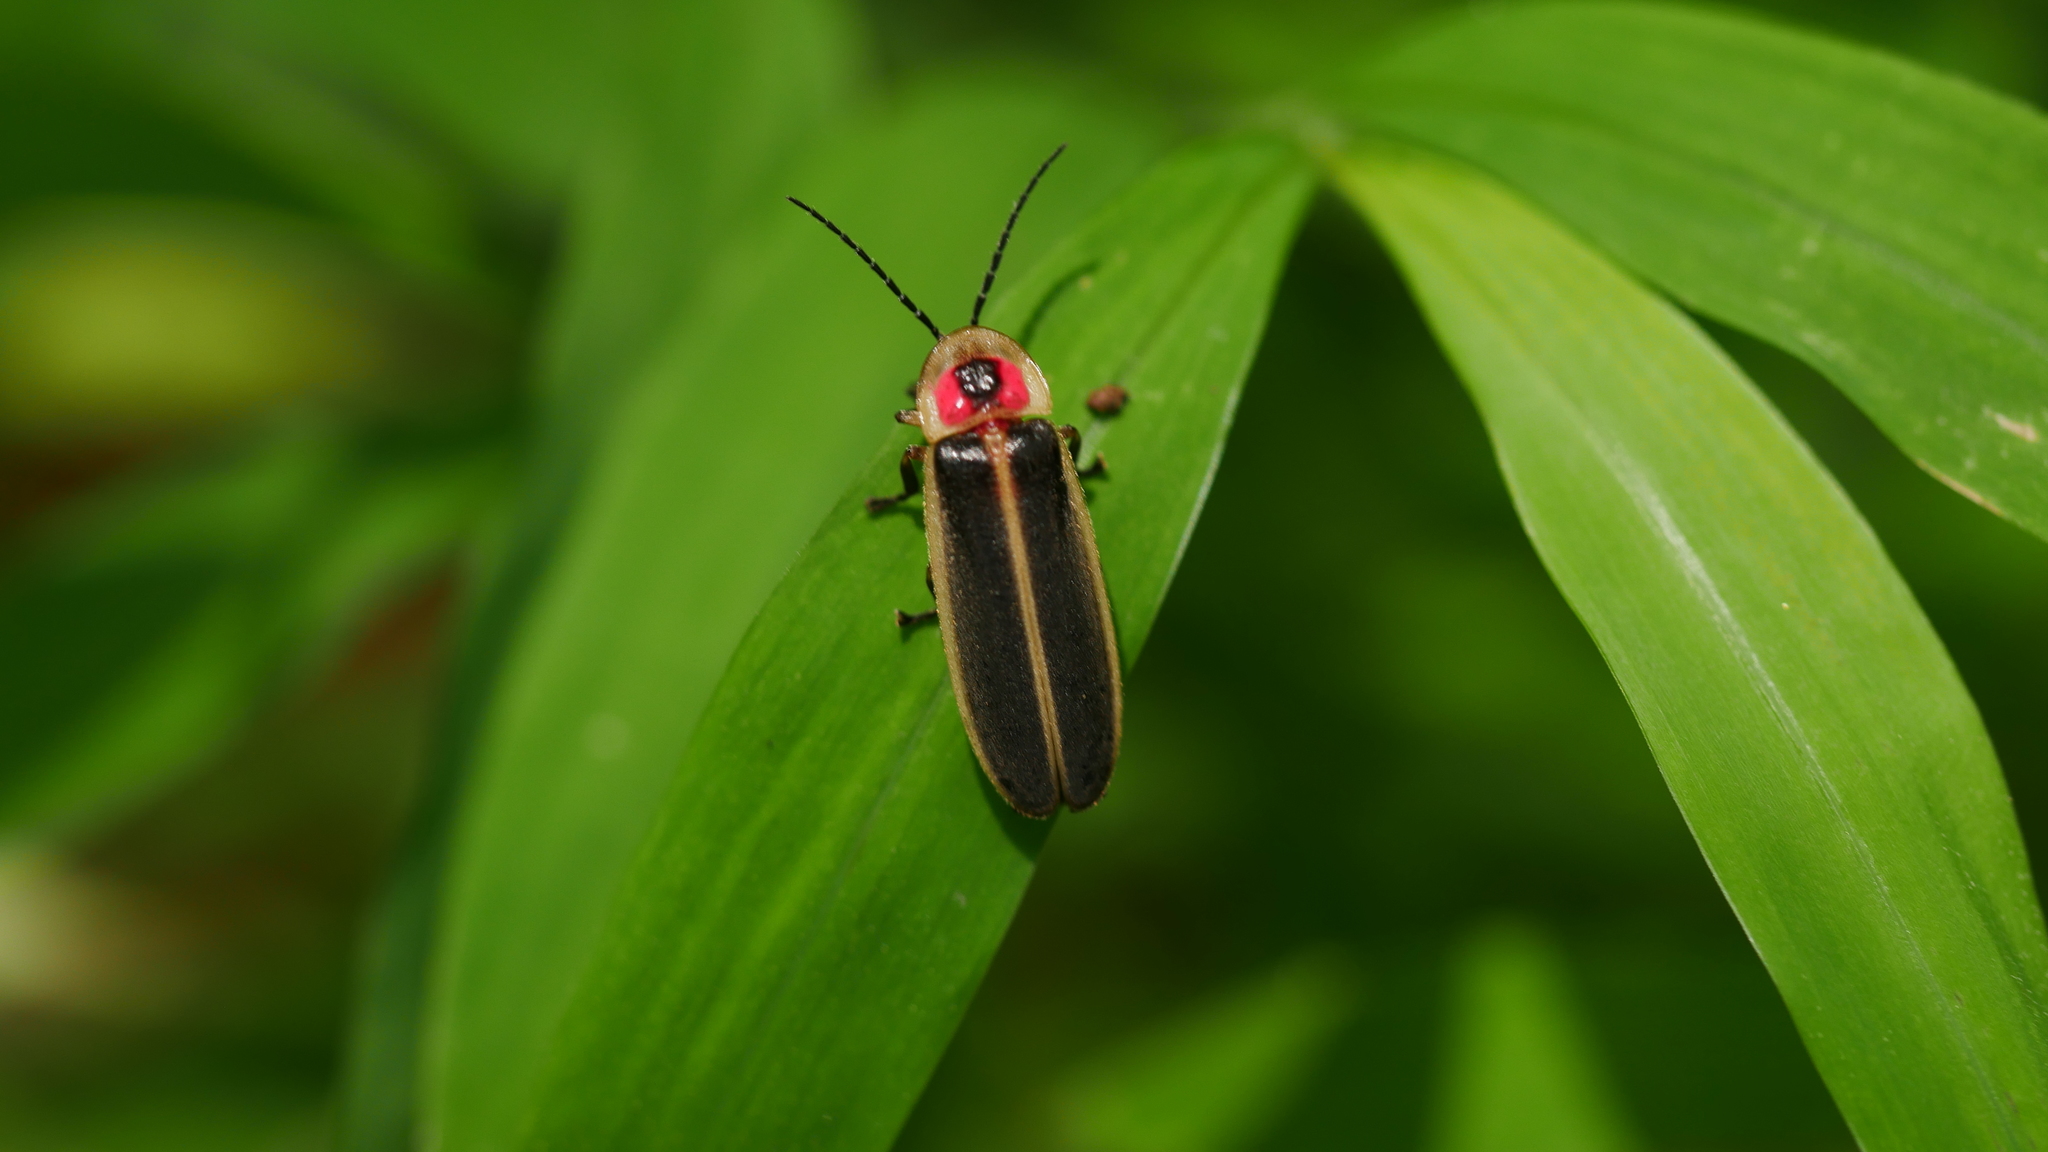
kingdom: Animalia
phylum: Arthropoda
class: Insecta
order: Coleoptera
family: Lampyridae
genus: Photinus
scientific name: Photinus pyralis
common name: Big dipper firefly
